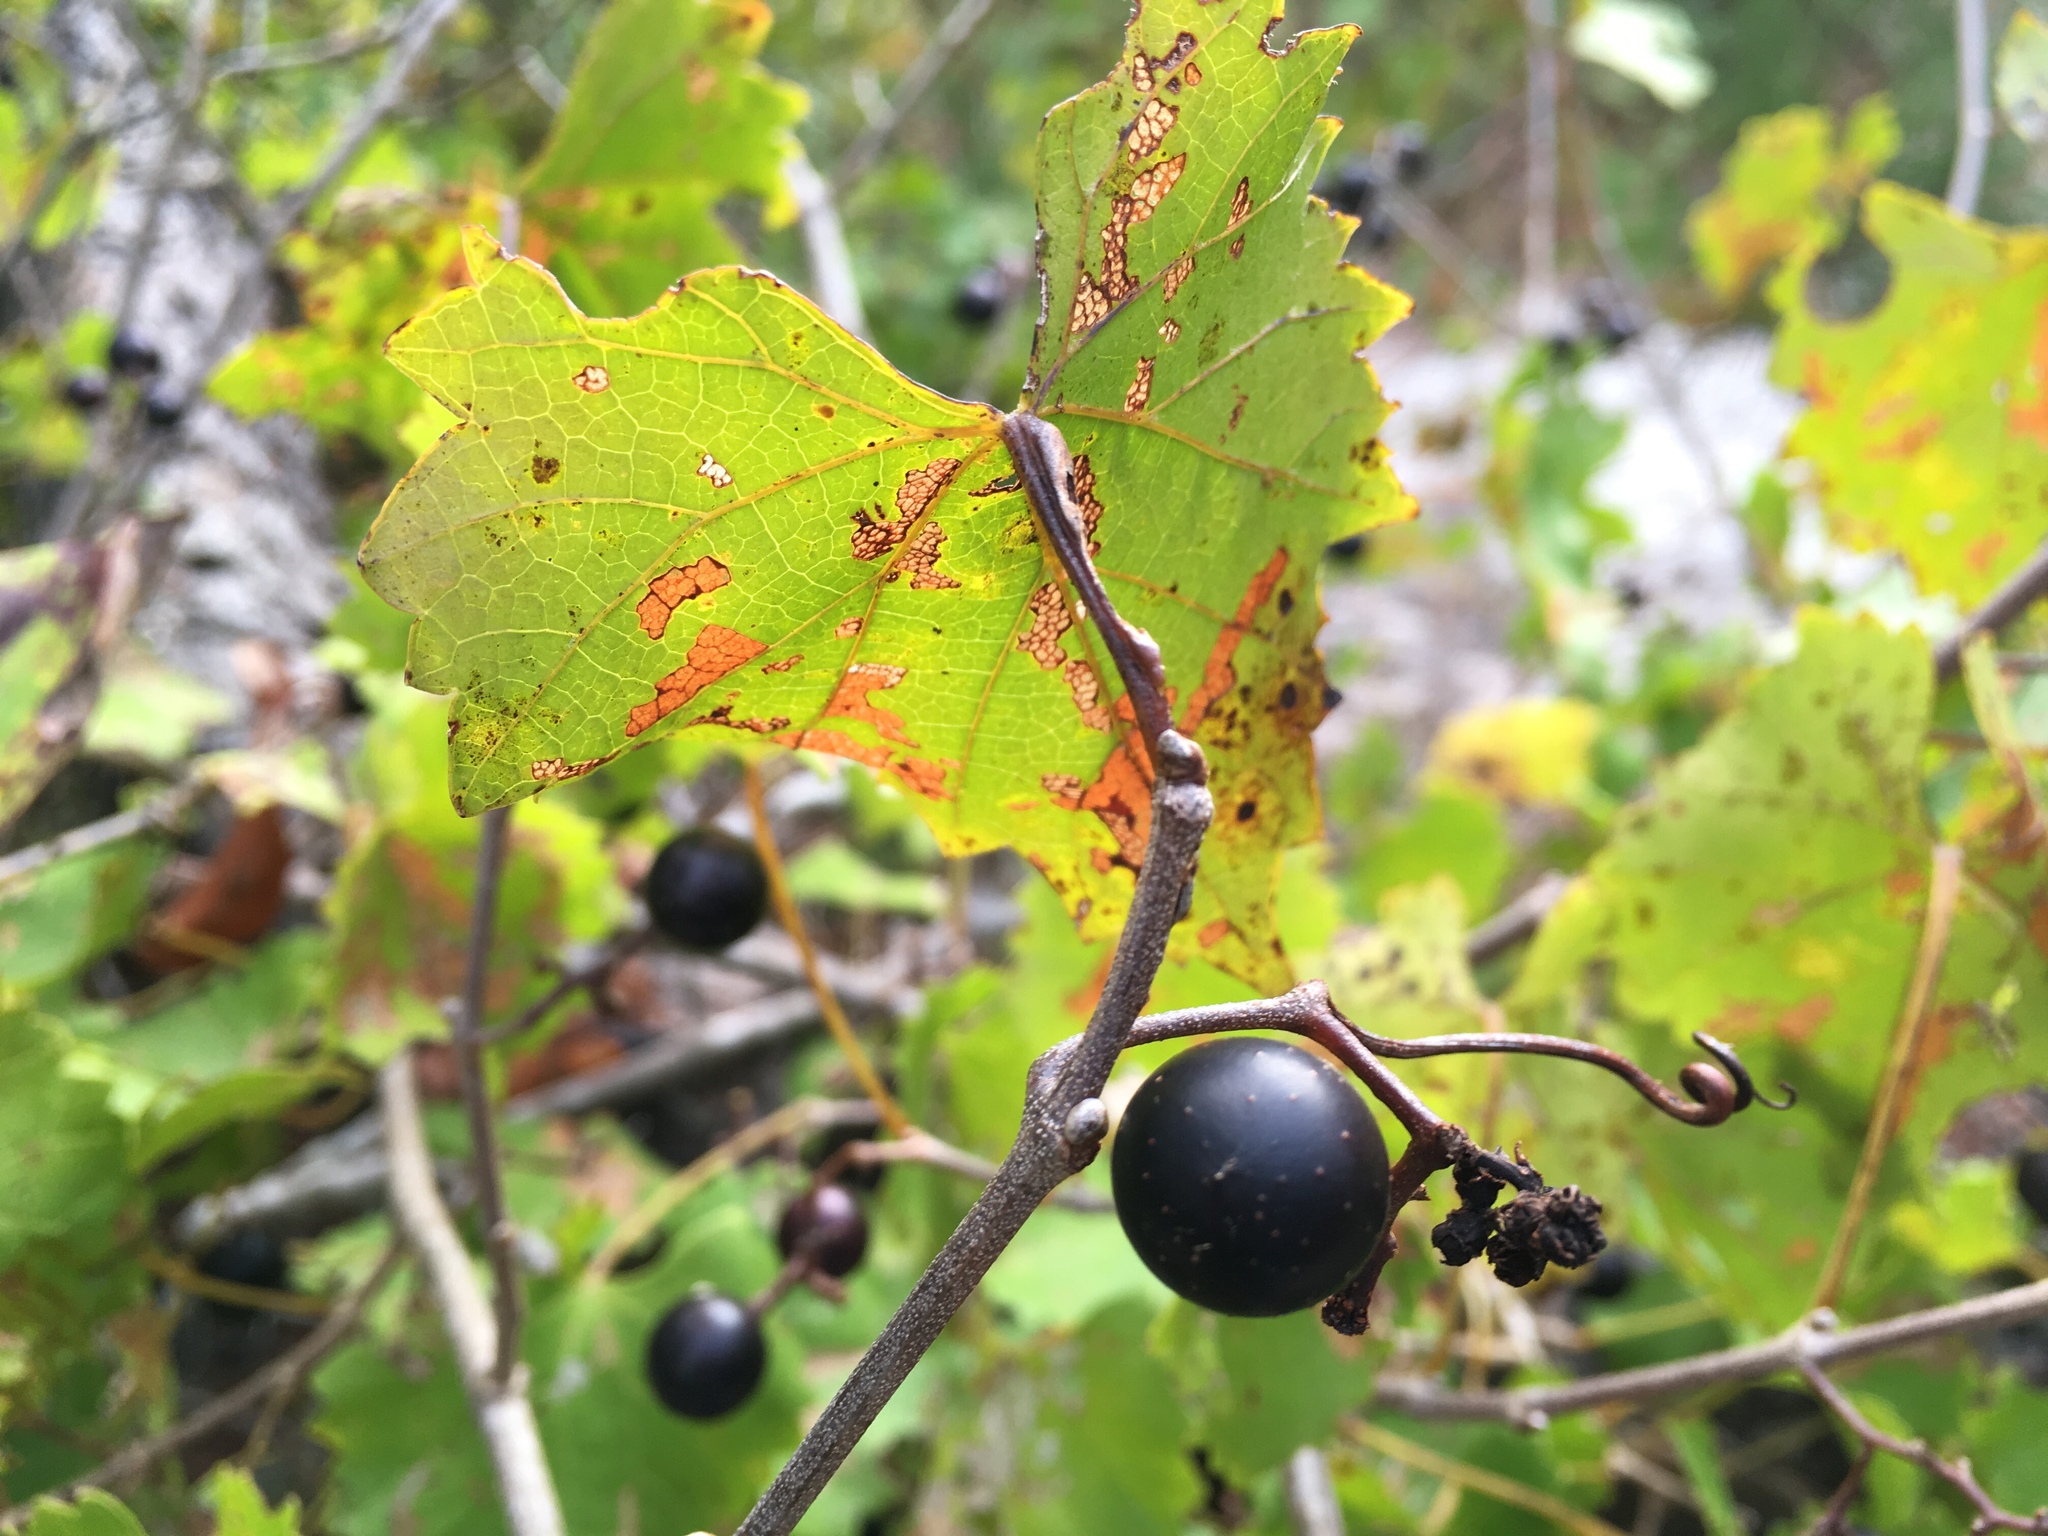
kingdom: Plantae
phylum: Tracheophyta
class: Magnoliopsida
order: Vitales
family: Vitaceae
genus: Vitis
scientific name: Vitis rotundifolia
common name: Muscadine grape
